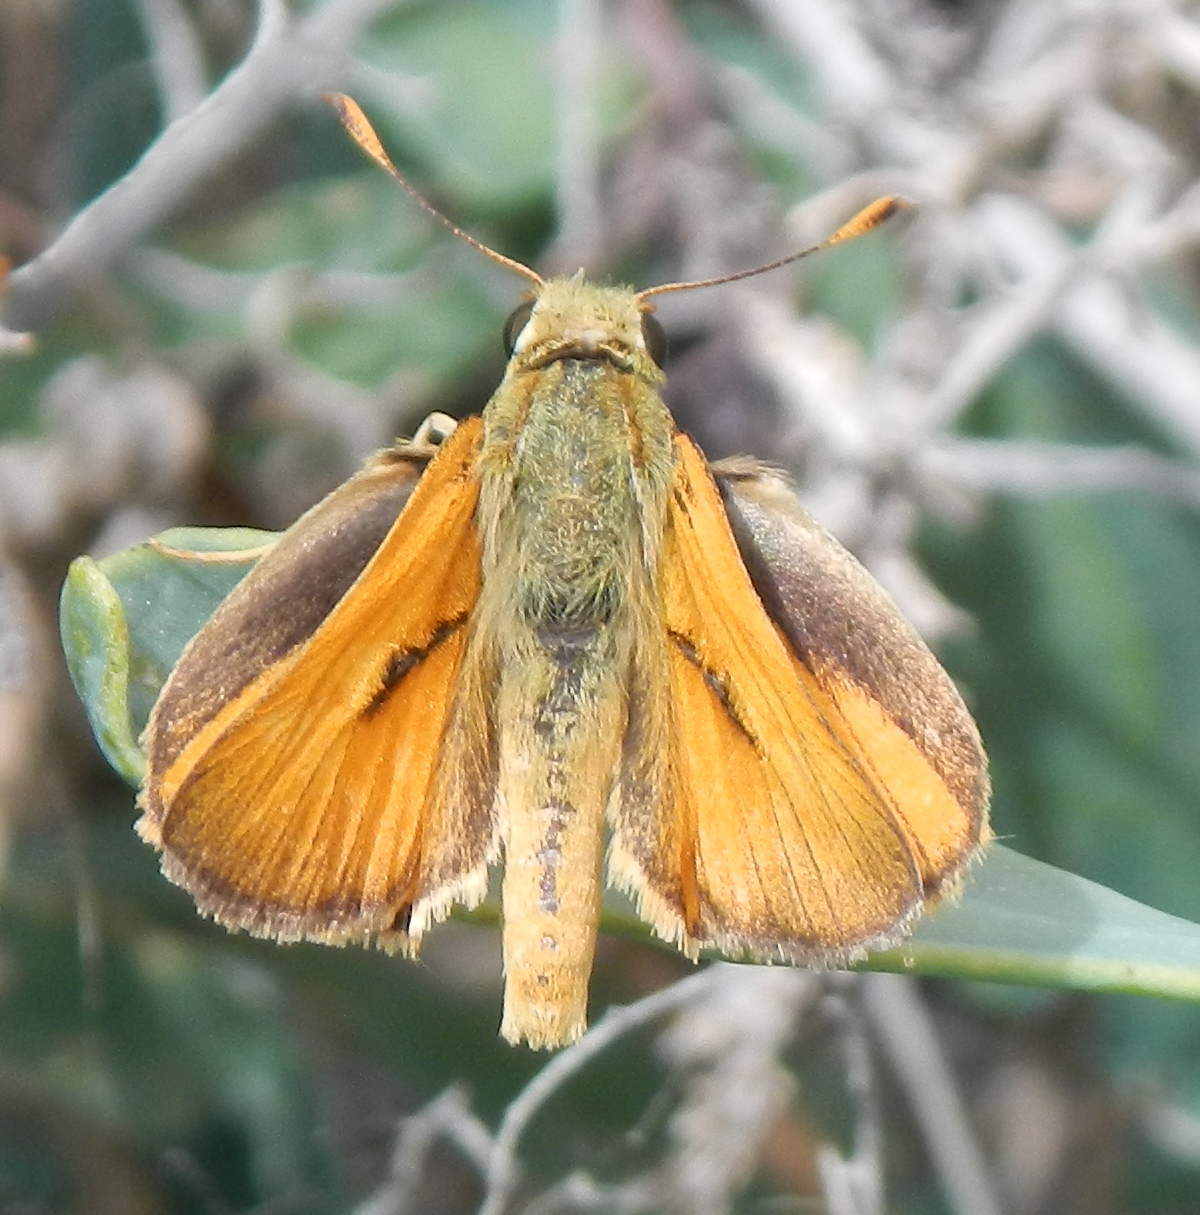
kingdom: Animalia
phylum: Arthropoda
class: Insecta
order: Lepidoptera
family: Hesperiidae
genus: Ochlodes
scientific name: Ochlodes sylvanoides
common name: Woodland skipper
